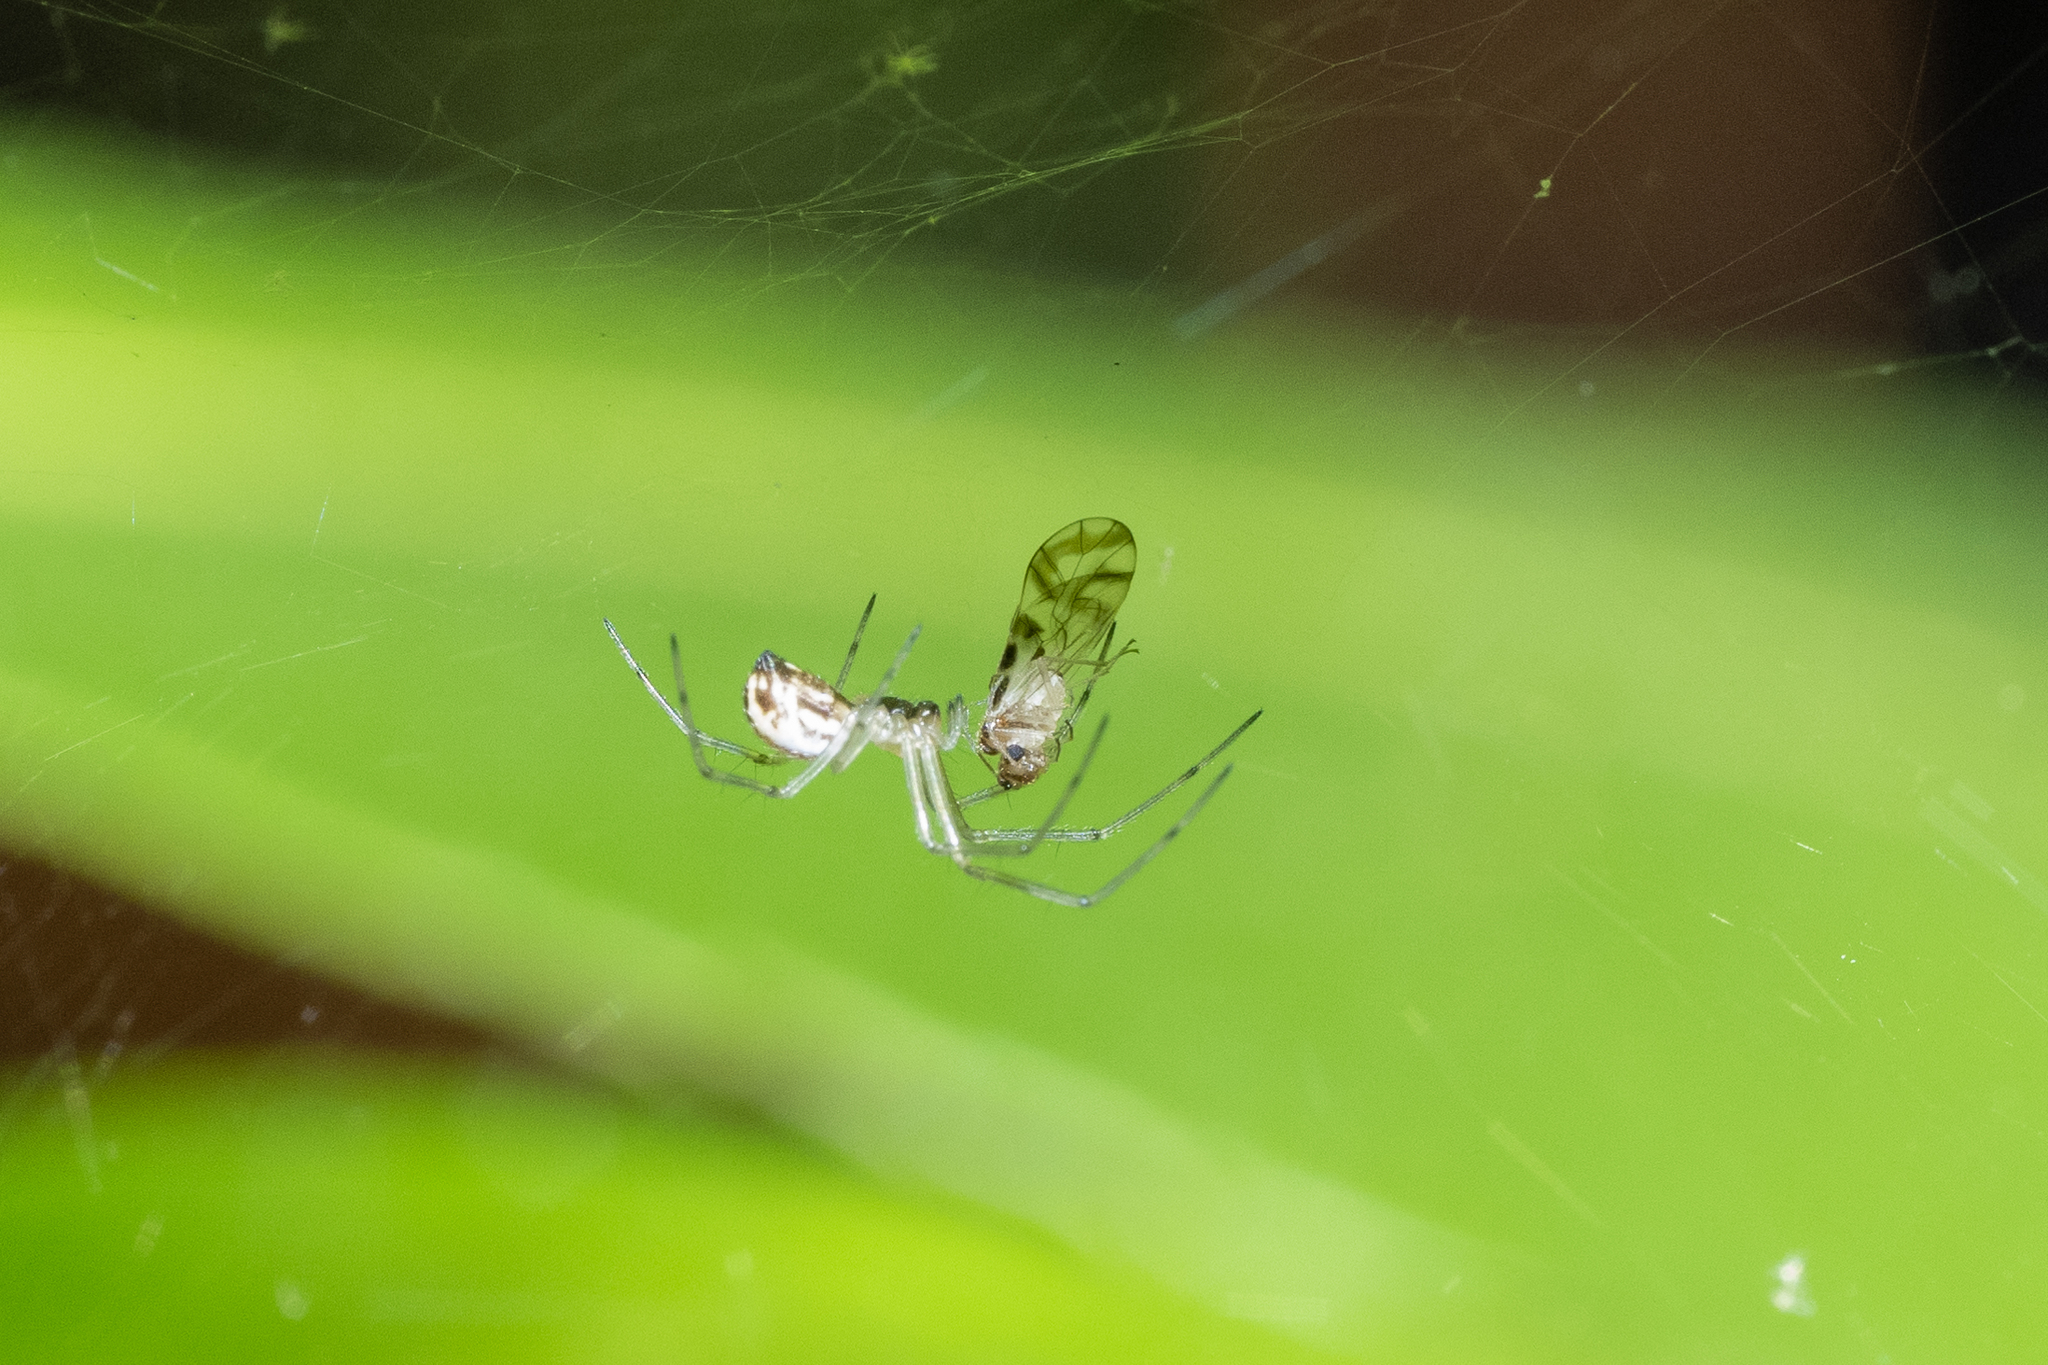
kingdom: Animalia
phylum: Arthropoda
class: Arachnida
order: Araneae
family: Linyphiidae
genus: Neriene
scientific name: Neriene litigiosa
